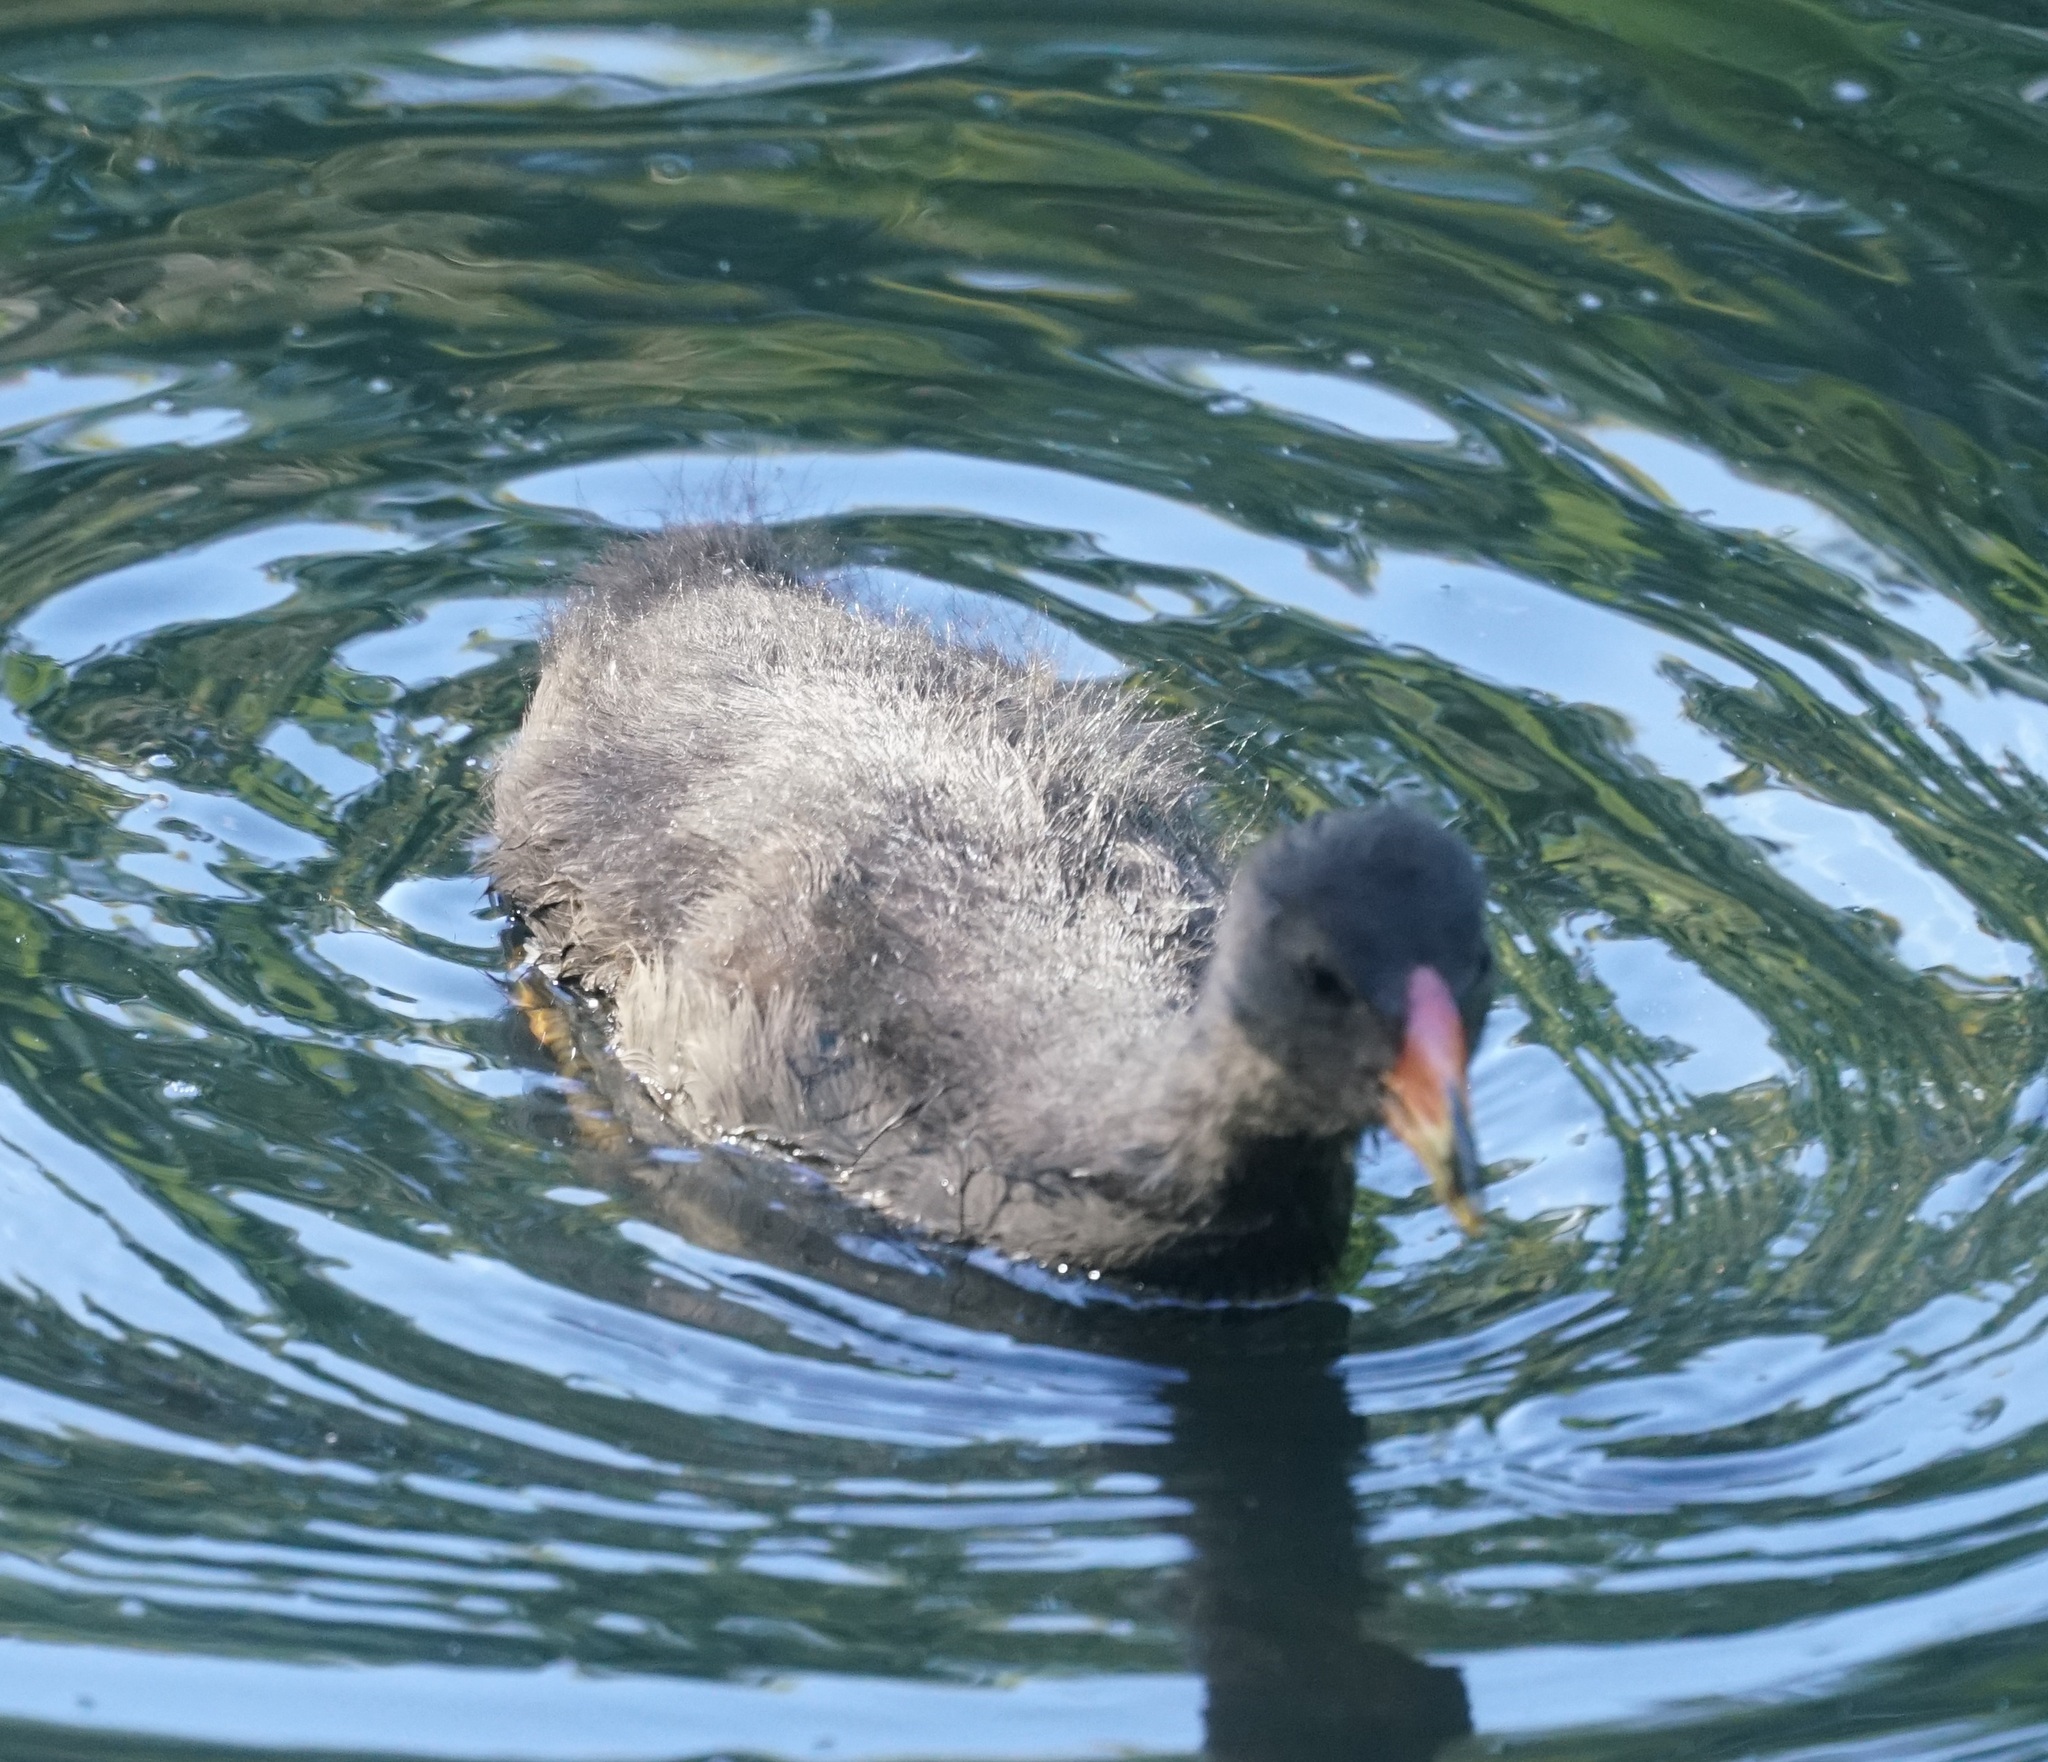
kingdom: Animalia
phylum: Chordata
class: Aves
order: Gruiformes
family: Rallidae
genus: Gallinula
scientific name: Gallinula tenebrosa
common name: Dusky moorhen
